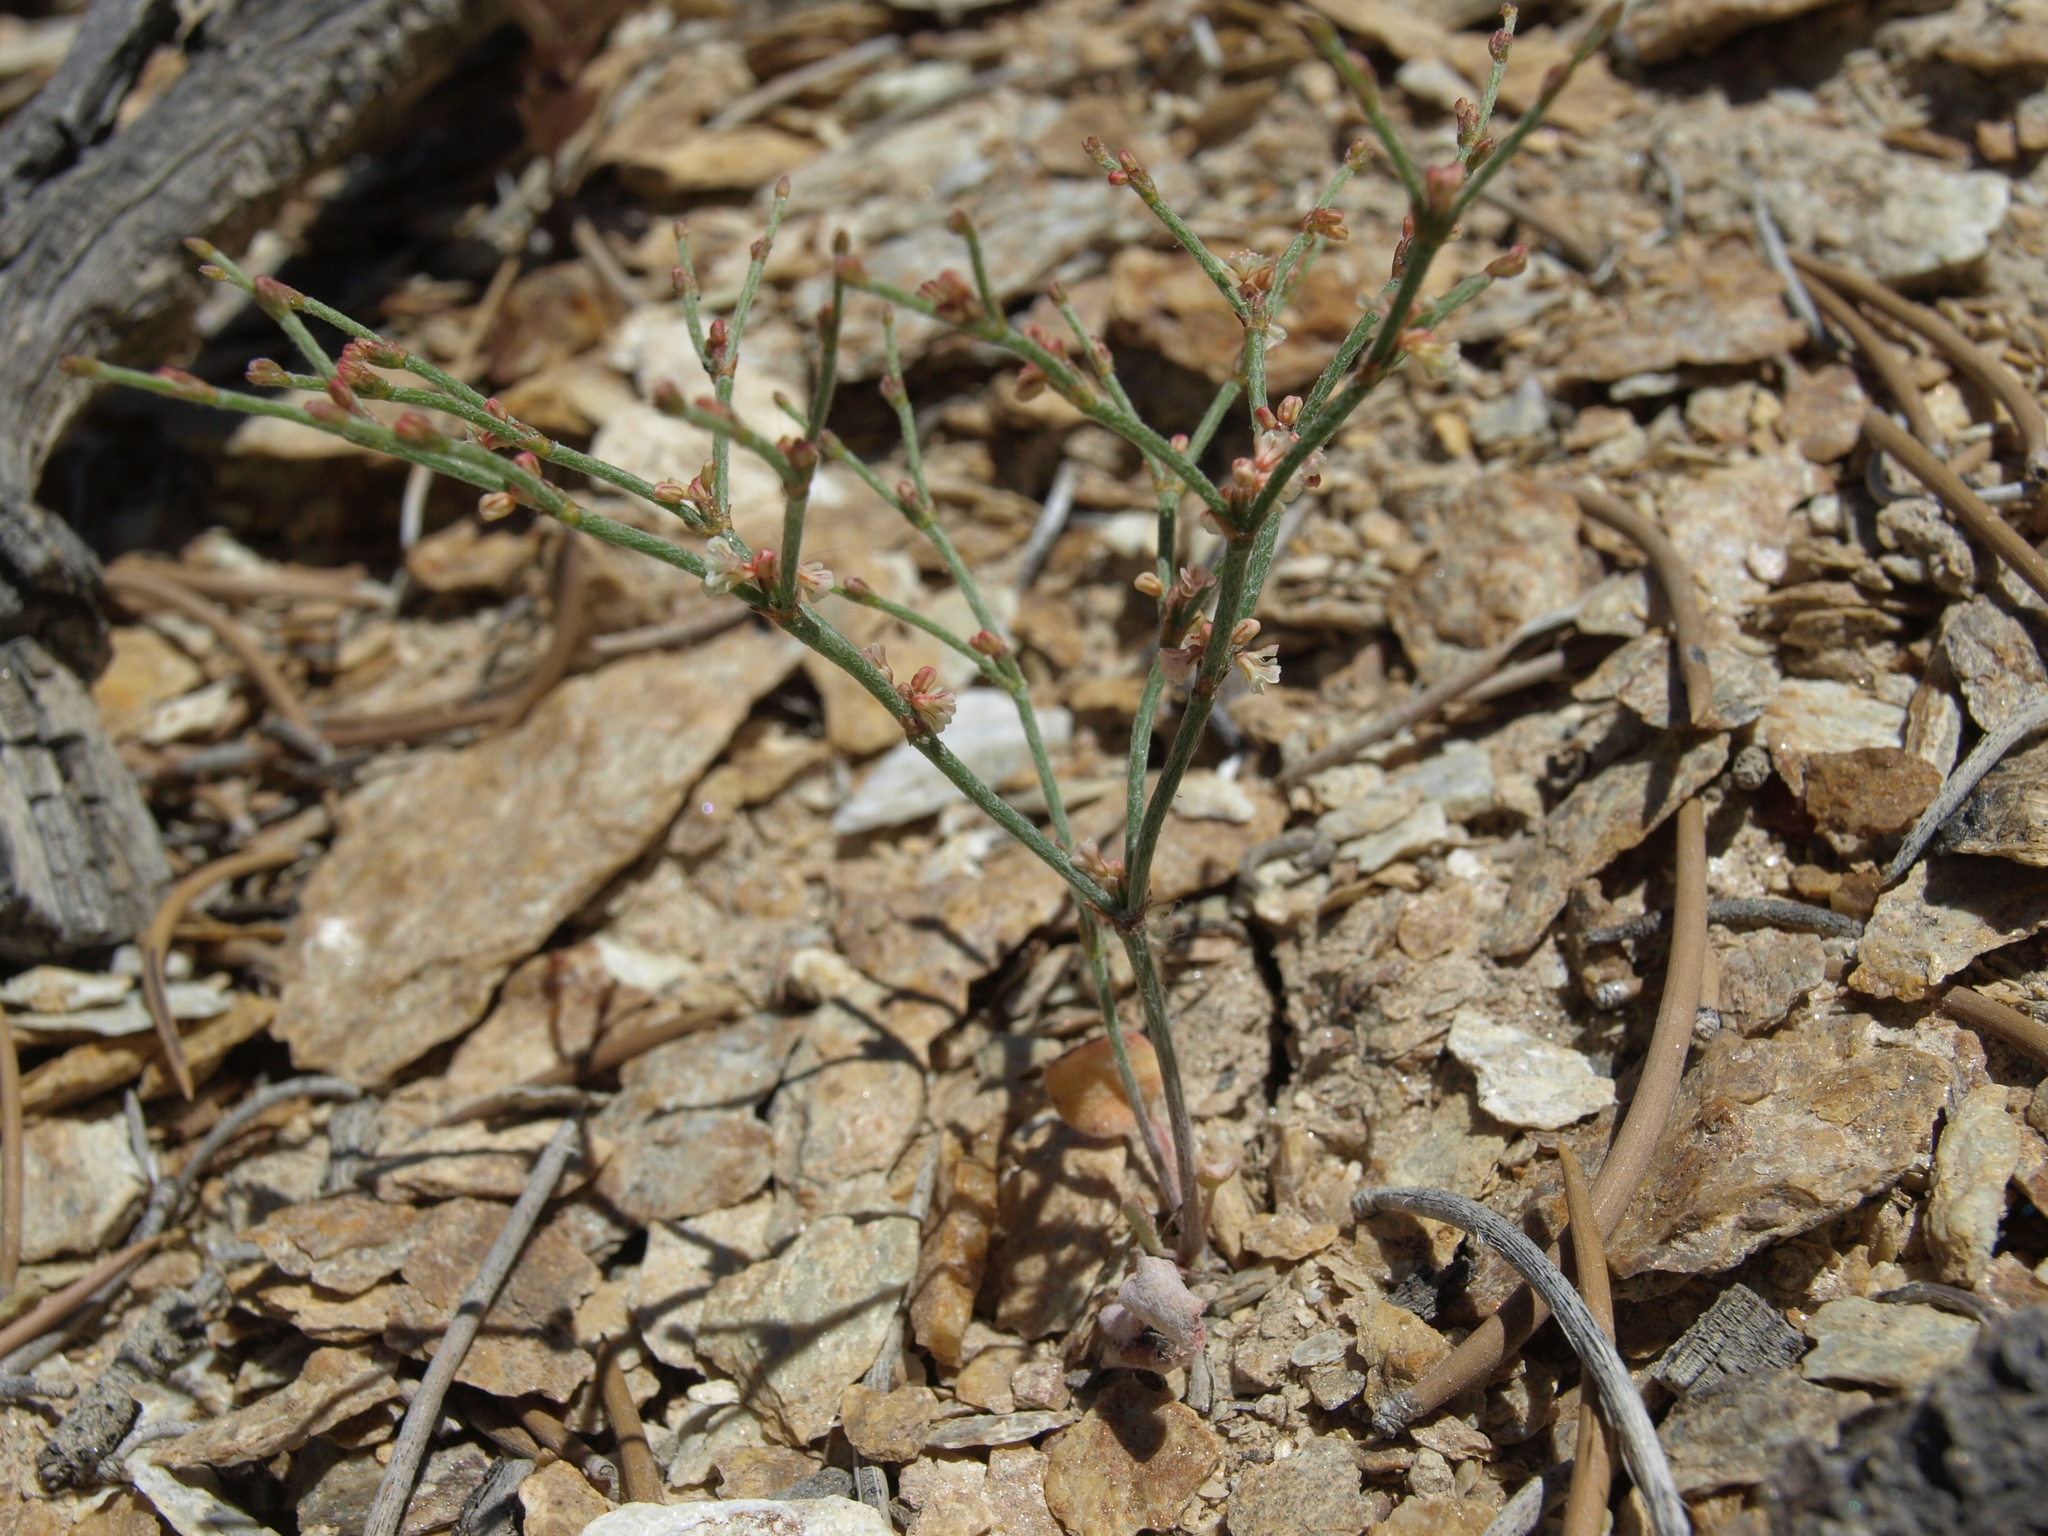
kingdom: Plantae
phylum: Tracheophyta
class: Magnoliopsida
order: Caryophyllales
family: Polygonaceae
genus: Eriogonum
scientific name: Eriogonum palmerianum
